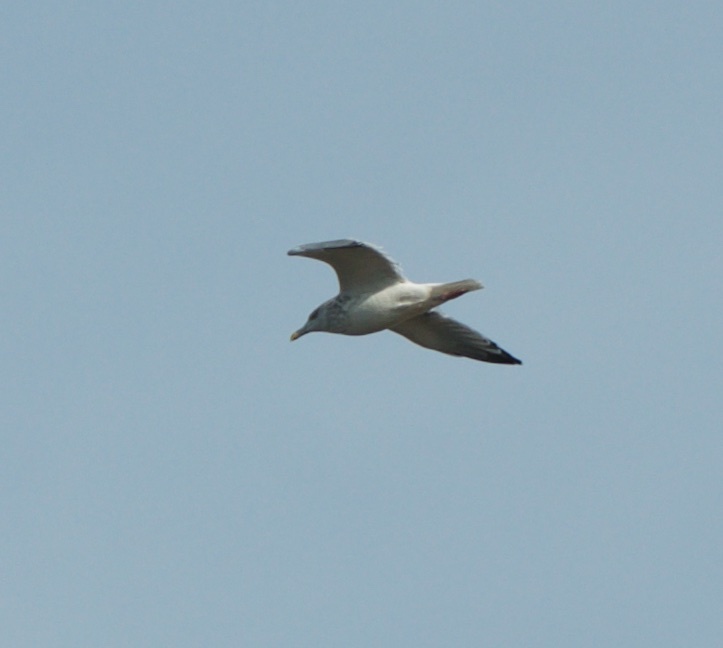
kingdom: Animalia
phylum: Chordata
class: Aves
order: Charadriiformes
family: Laridae
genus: Larus
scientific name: Larus argentatus
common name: Herring gull
